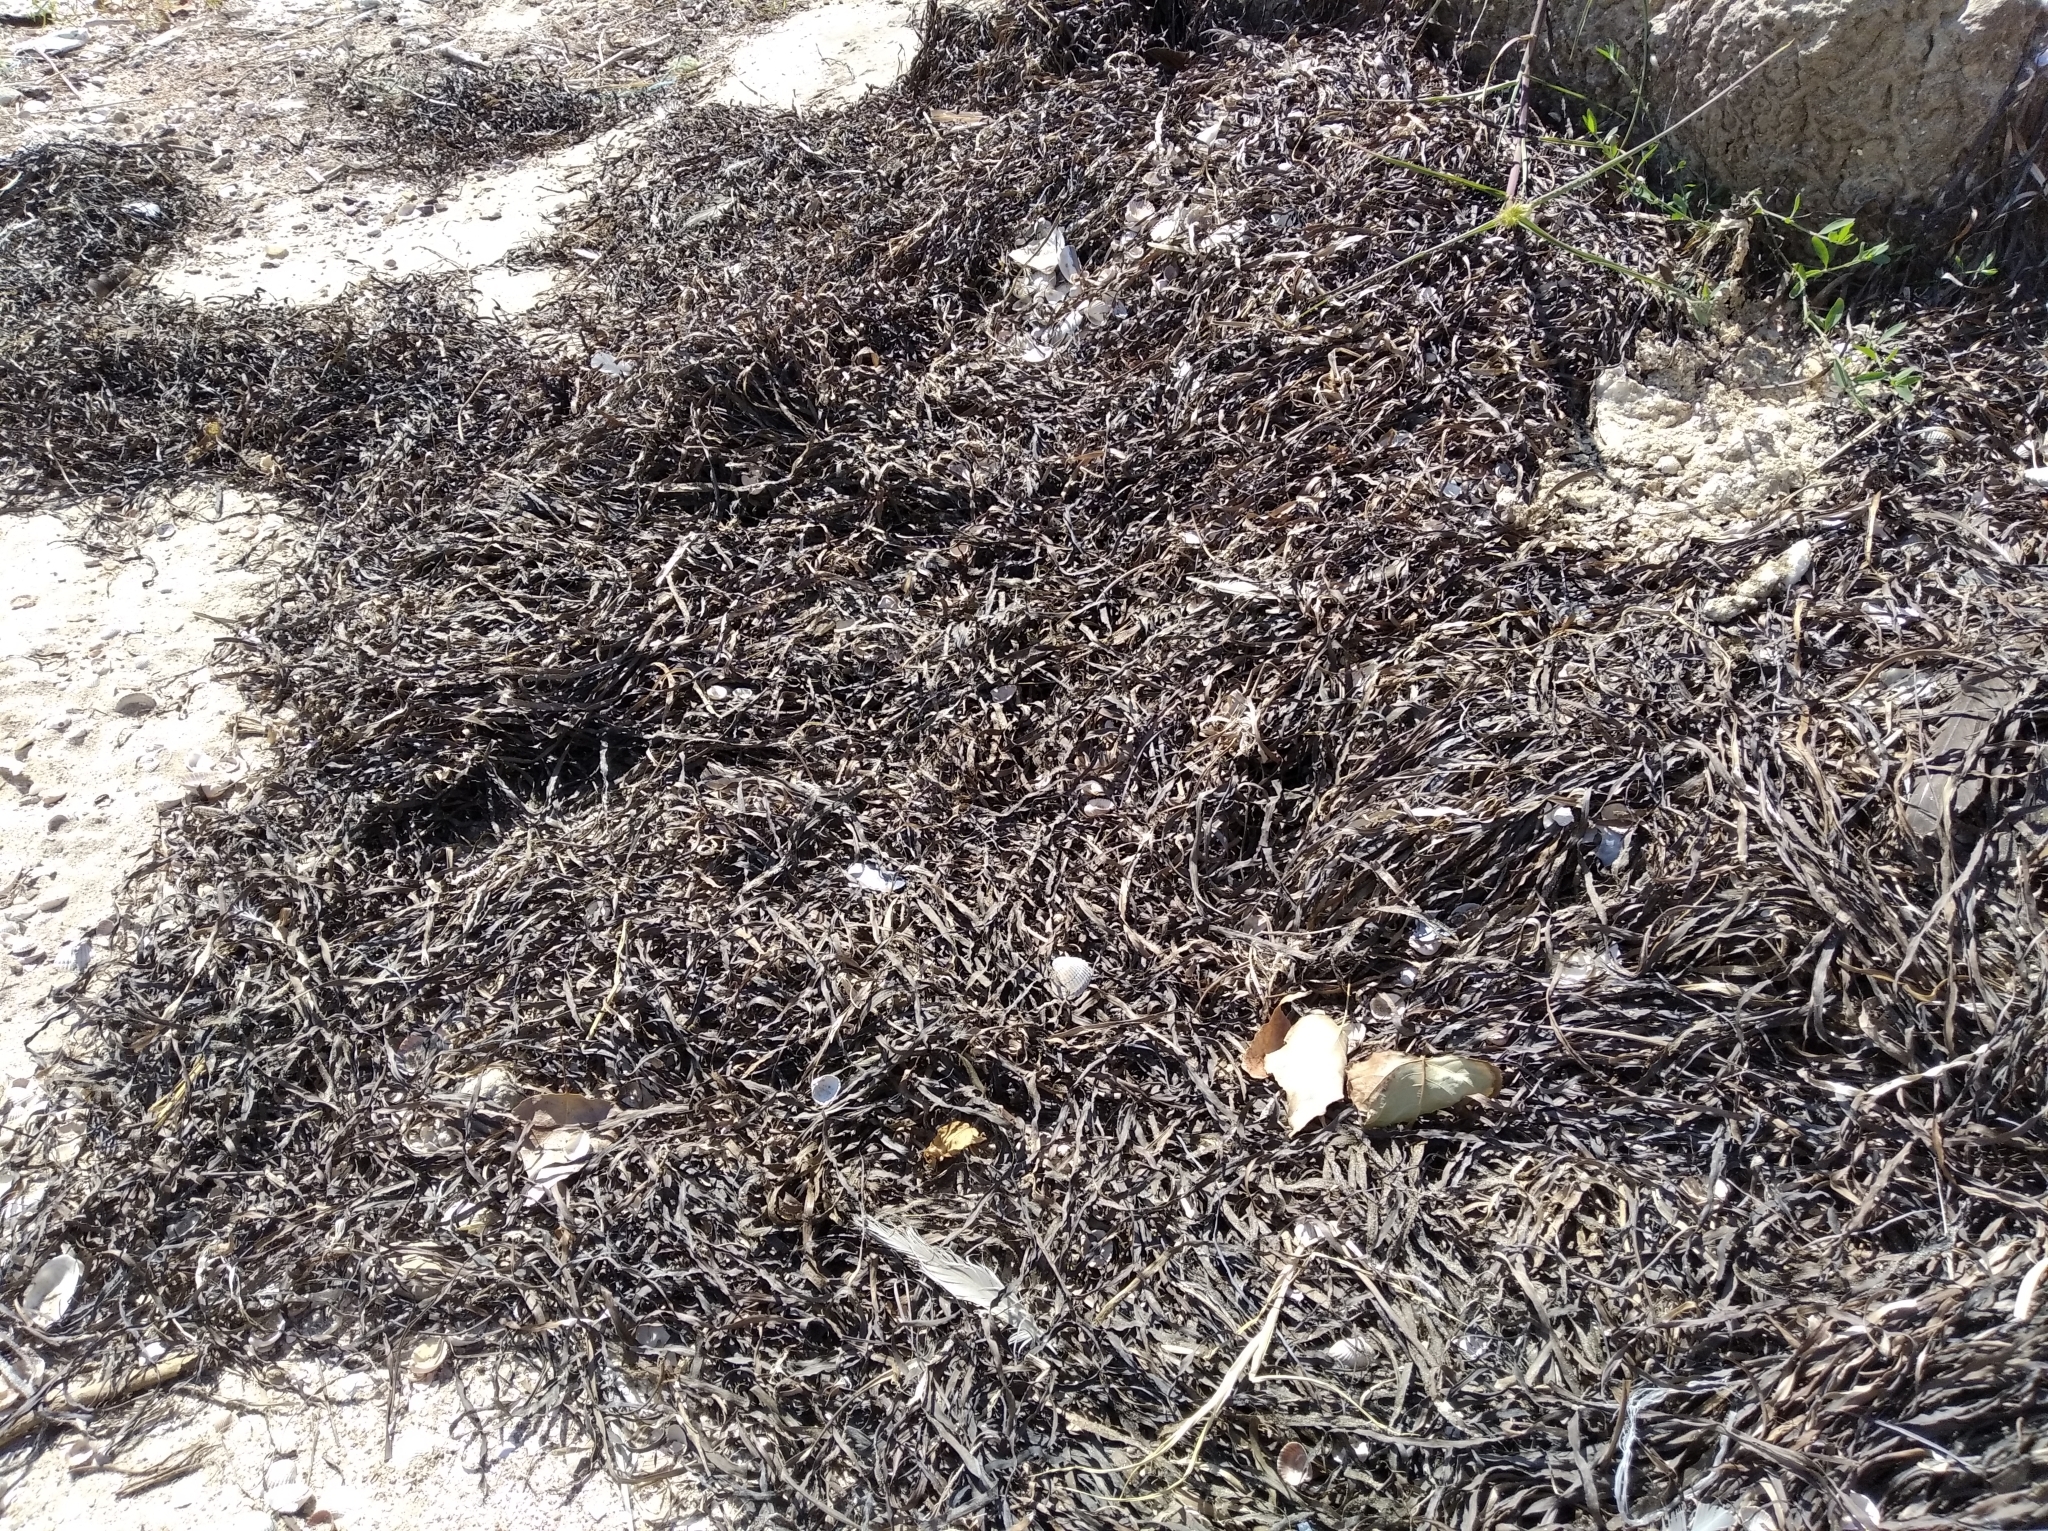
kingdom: Plantae
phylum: Tracheophyta
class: Liliopsida
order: Alismatales
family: Zosteraceae
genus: Zostera
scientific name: Zostera marina
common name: Eelgrass
